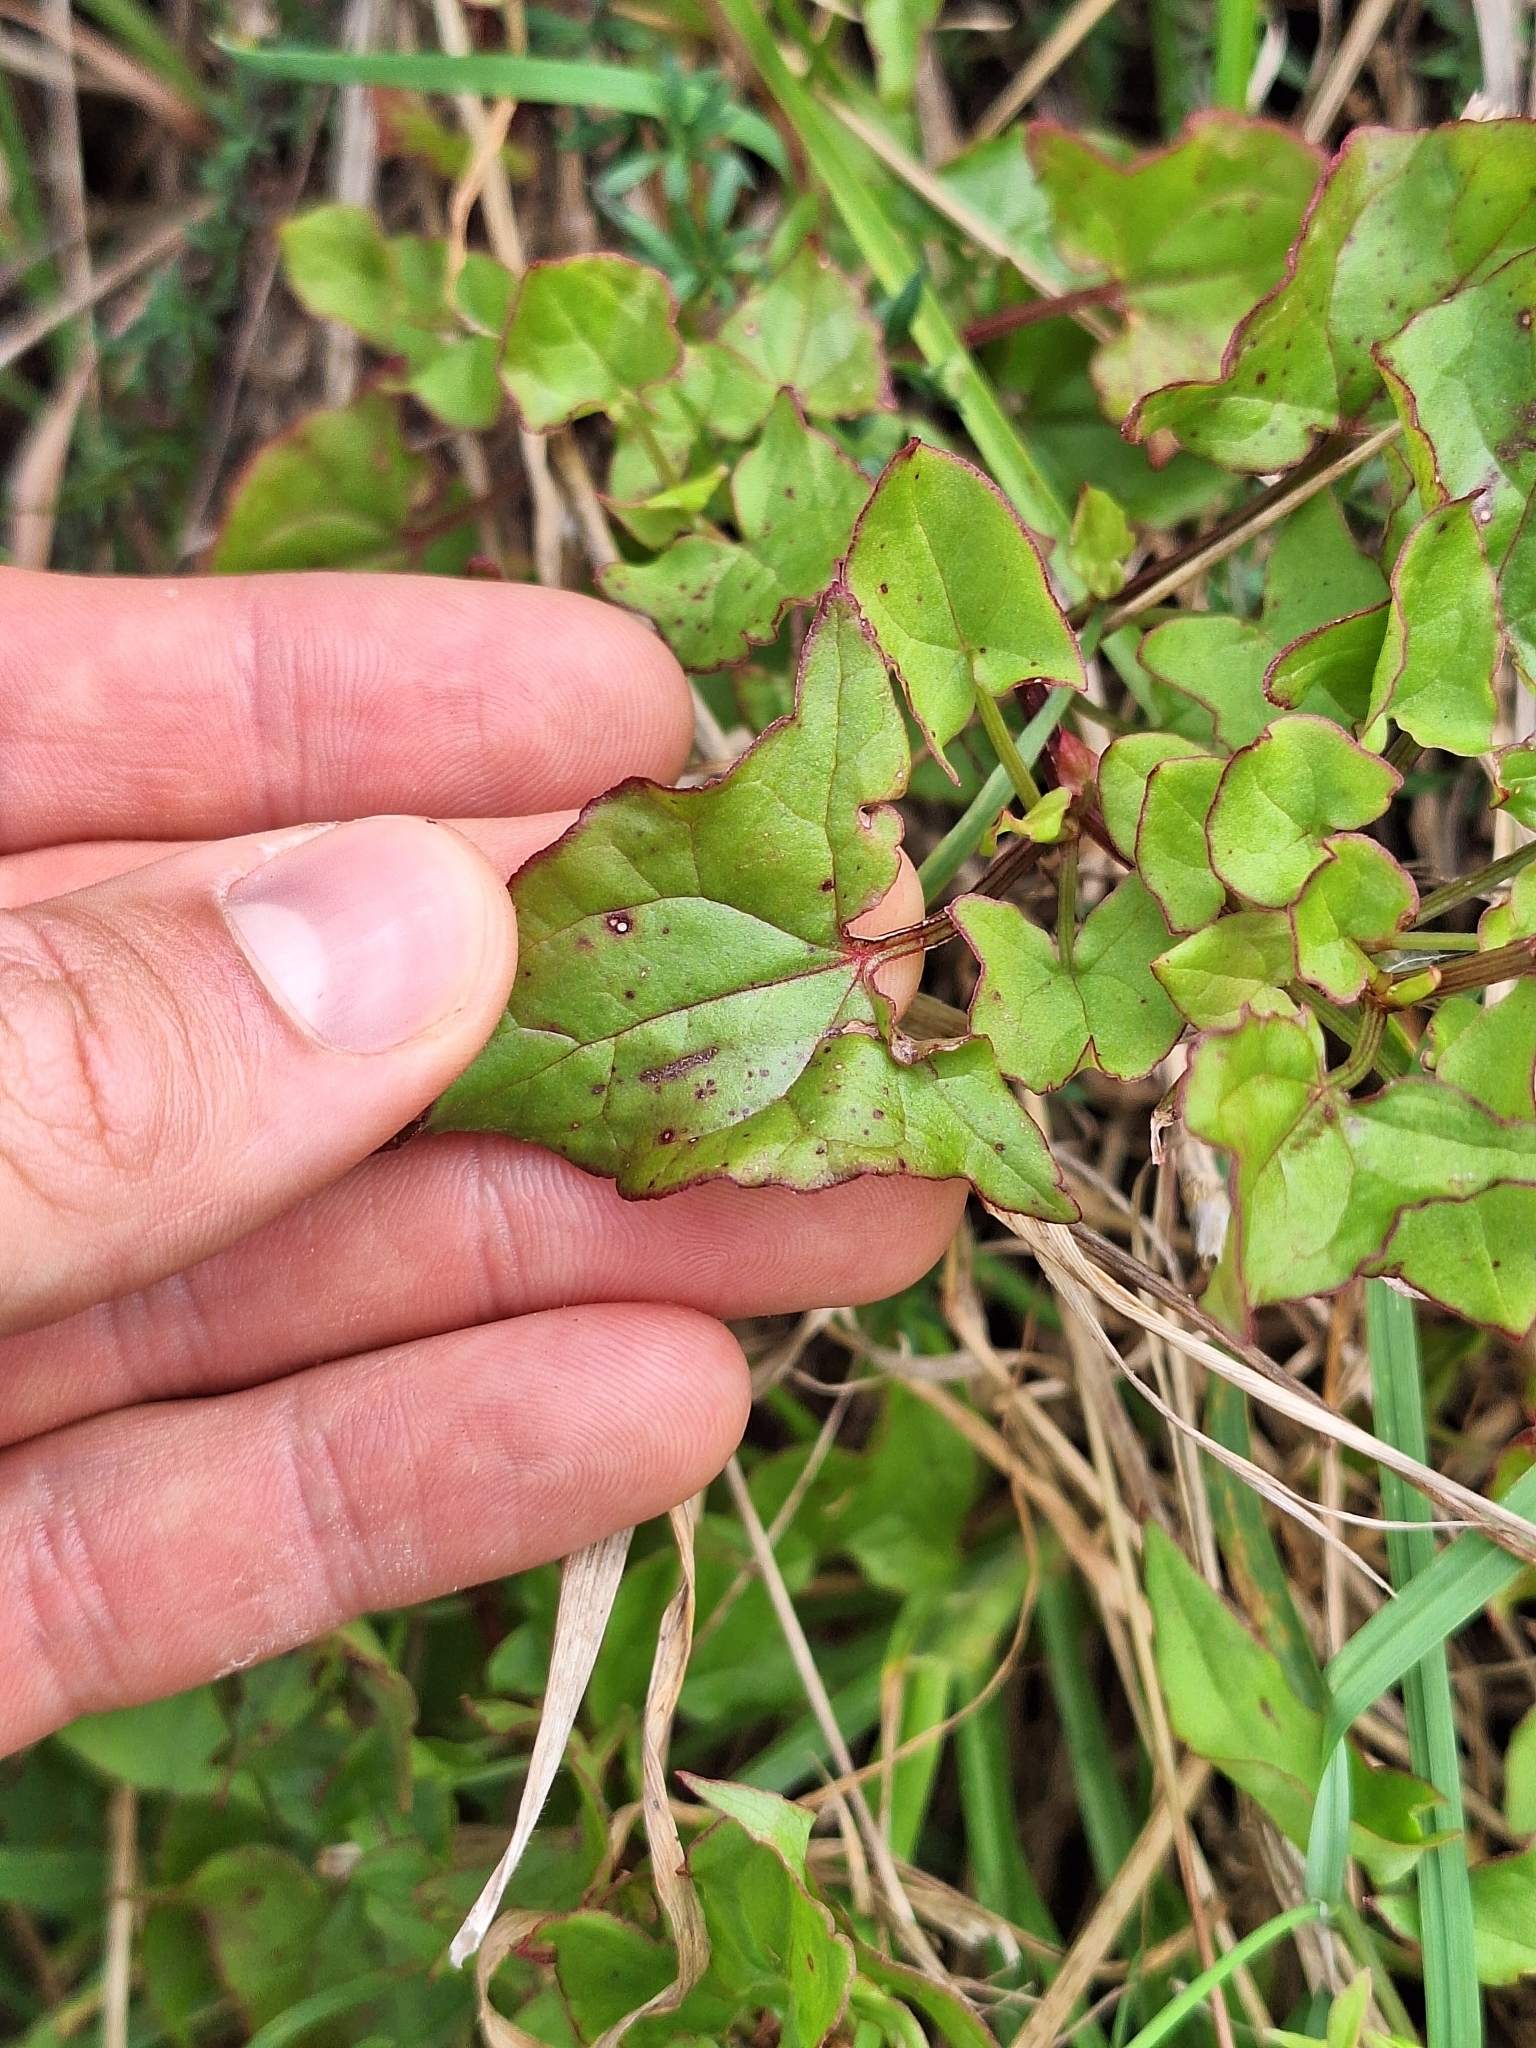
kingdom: Plantae
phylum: Tracheophyta
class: Magnoliopsida
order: Caryophyllales
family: Polygonaceae
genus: Rumex
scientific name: Rumex sagittatus
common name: Climbing dock
